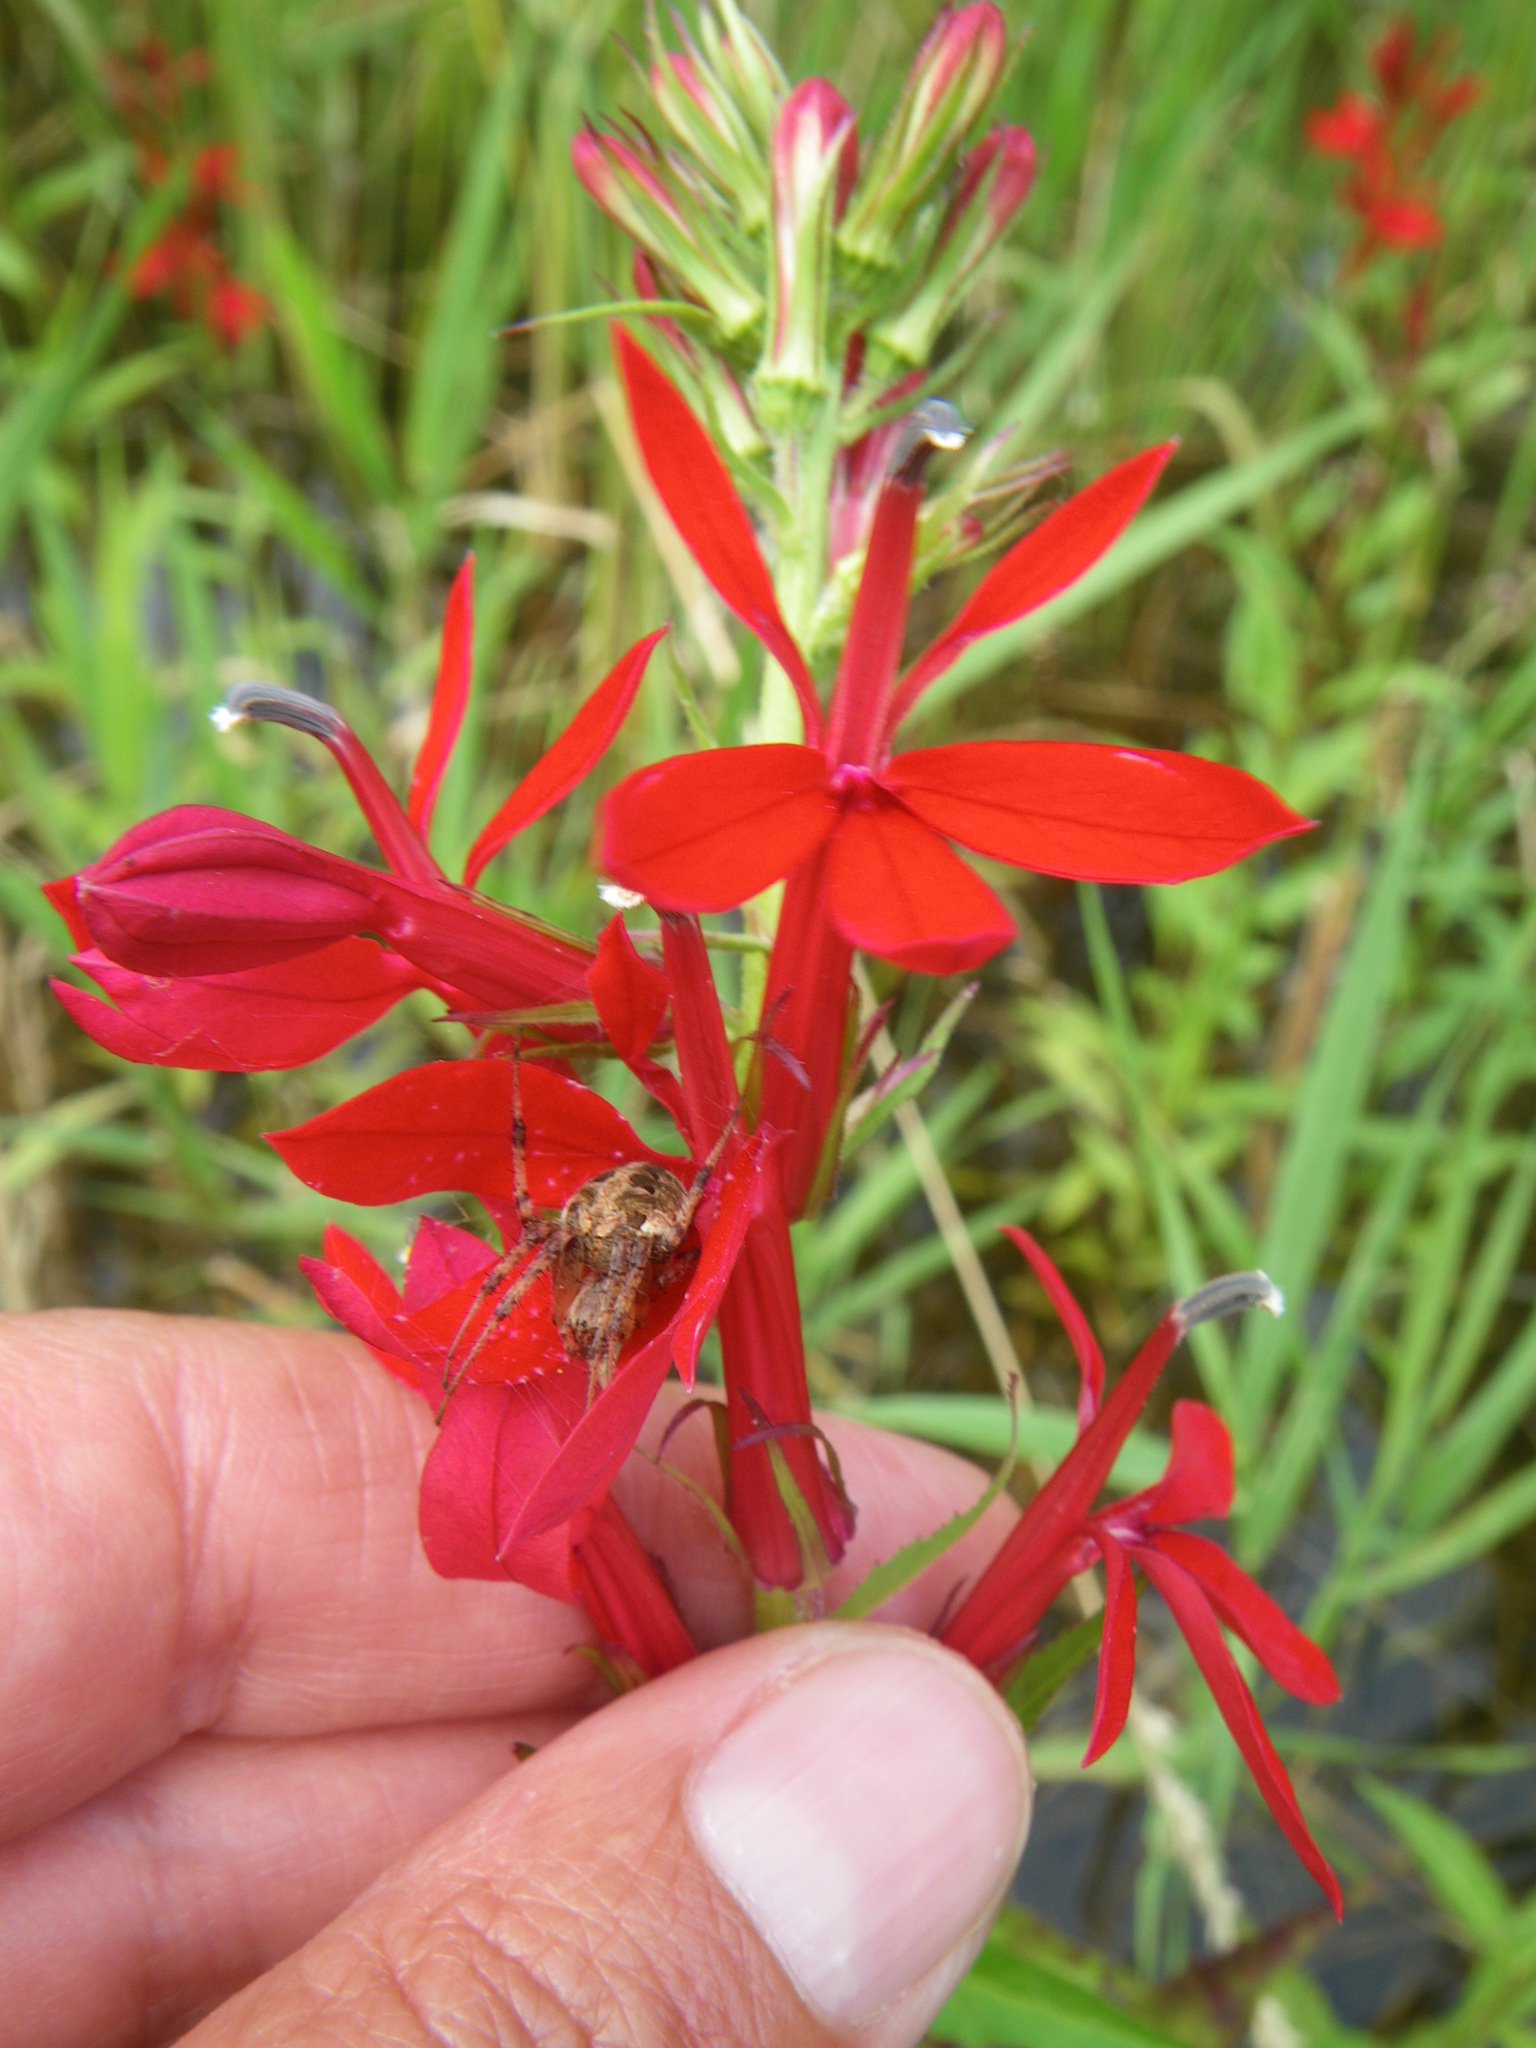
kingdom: Plantae
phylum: Tracheophyta
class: Magnoliopsida
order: Asterales
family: Campanulaceae
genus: Lobelia
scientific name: Lobelia cardinalis
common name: Cardinal flower
